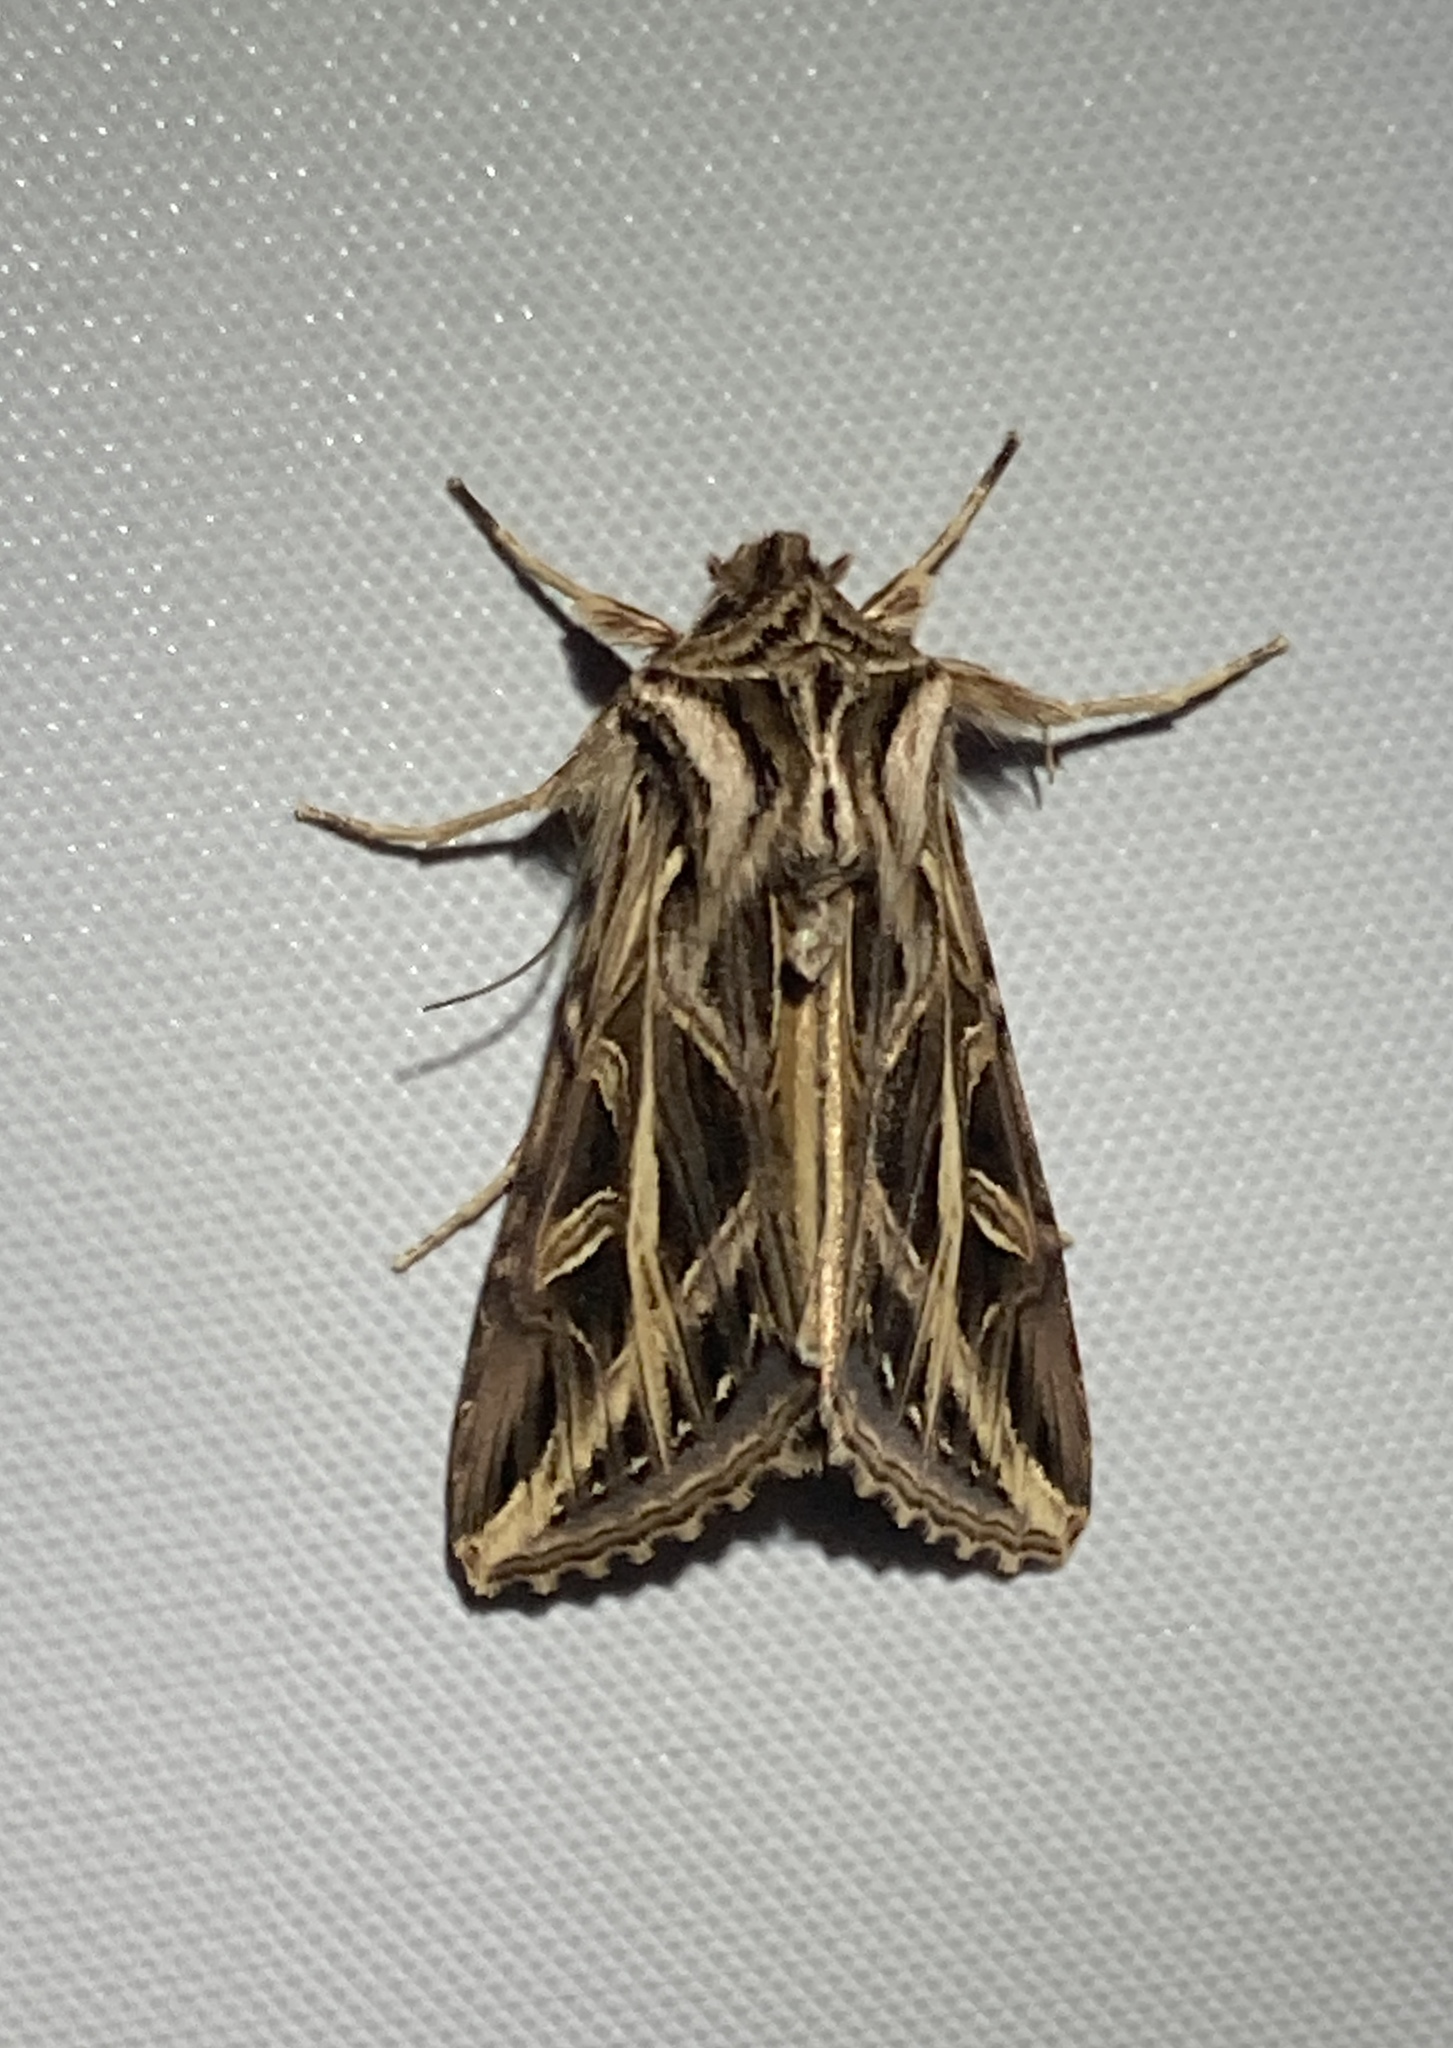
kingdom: Animalia
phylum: Arthropoda
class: Insecta
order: Lepidoptera
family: Noctuidae
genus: Dargida
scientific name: Dargida procinctus
